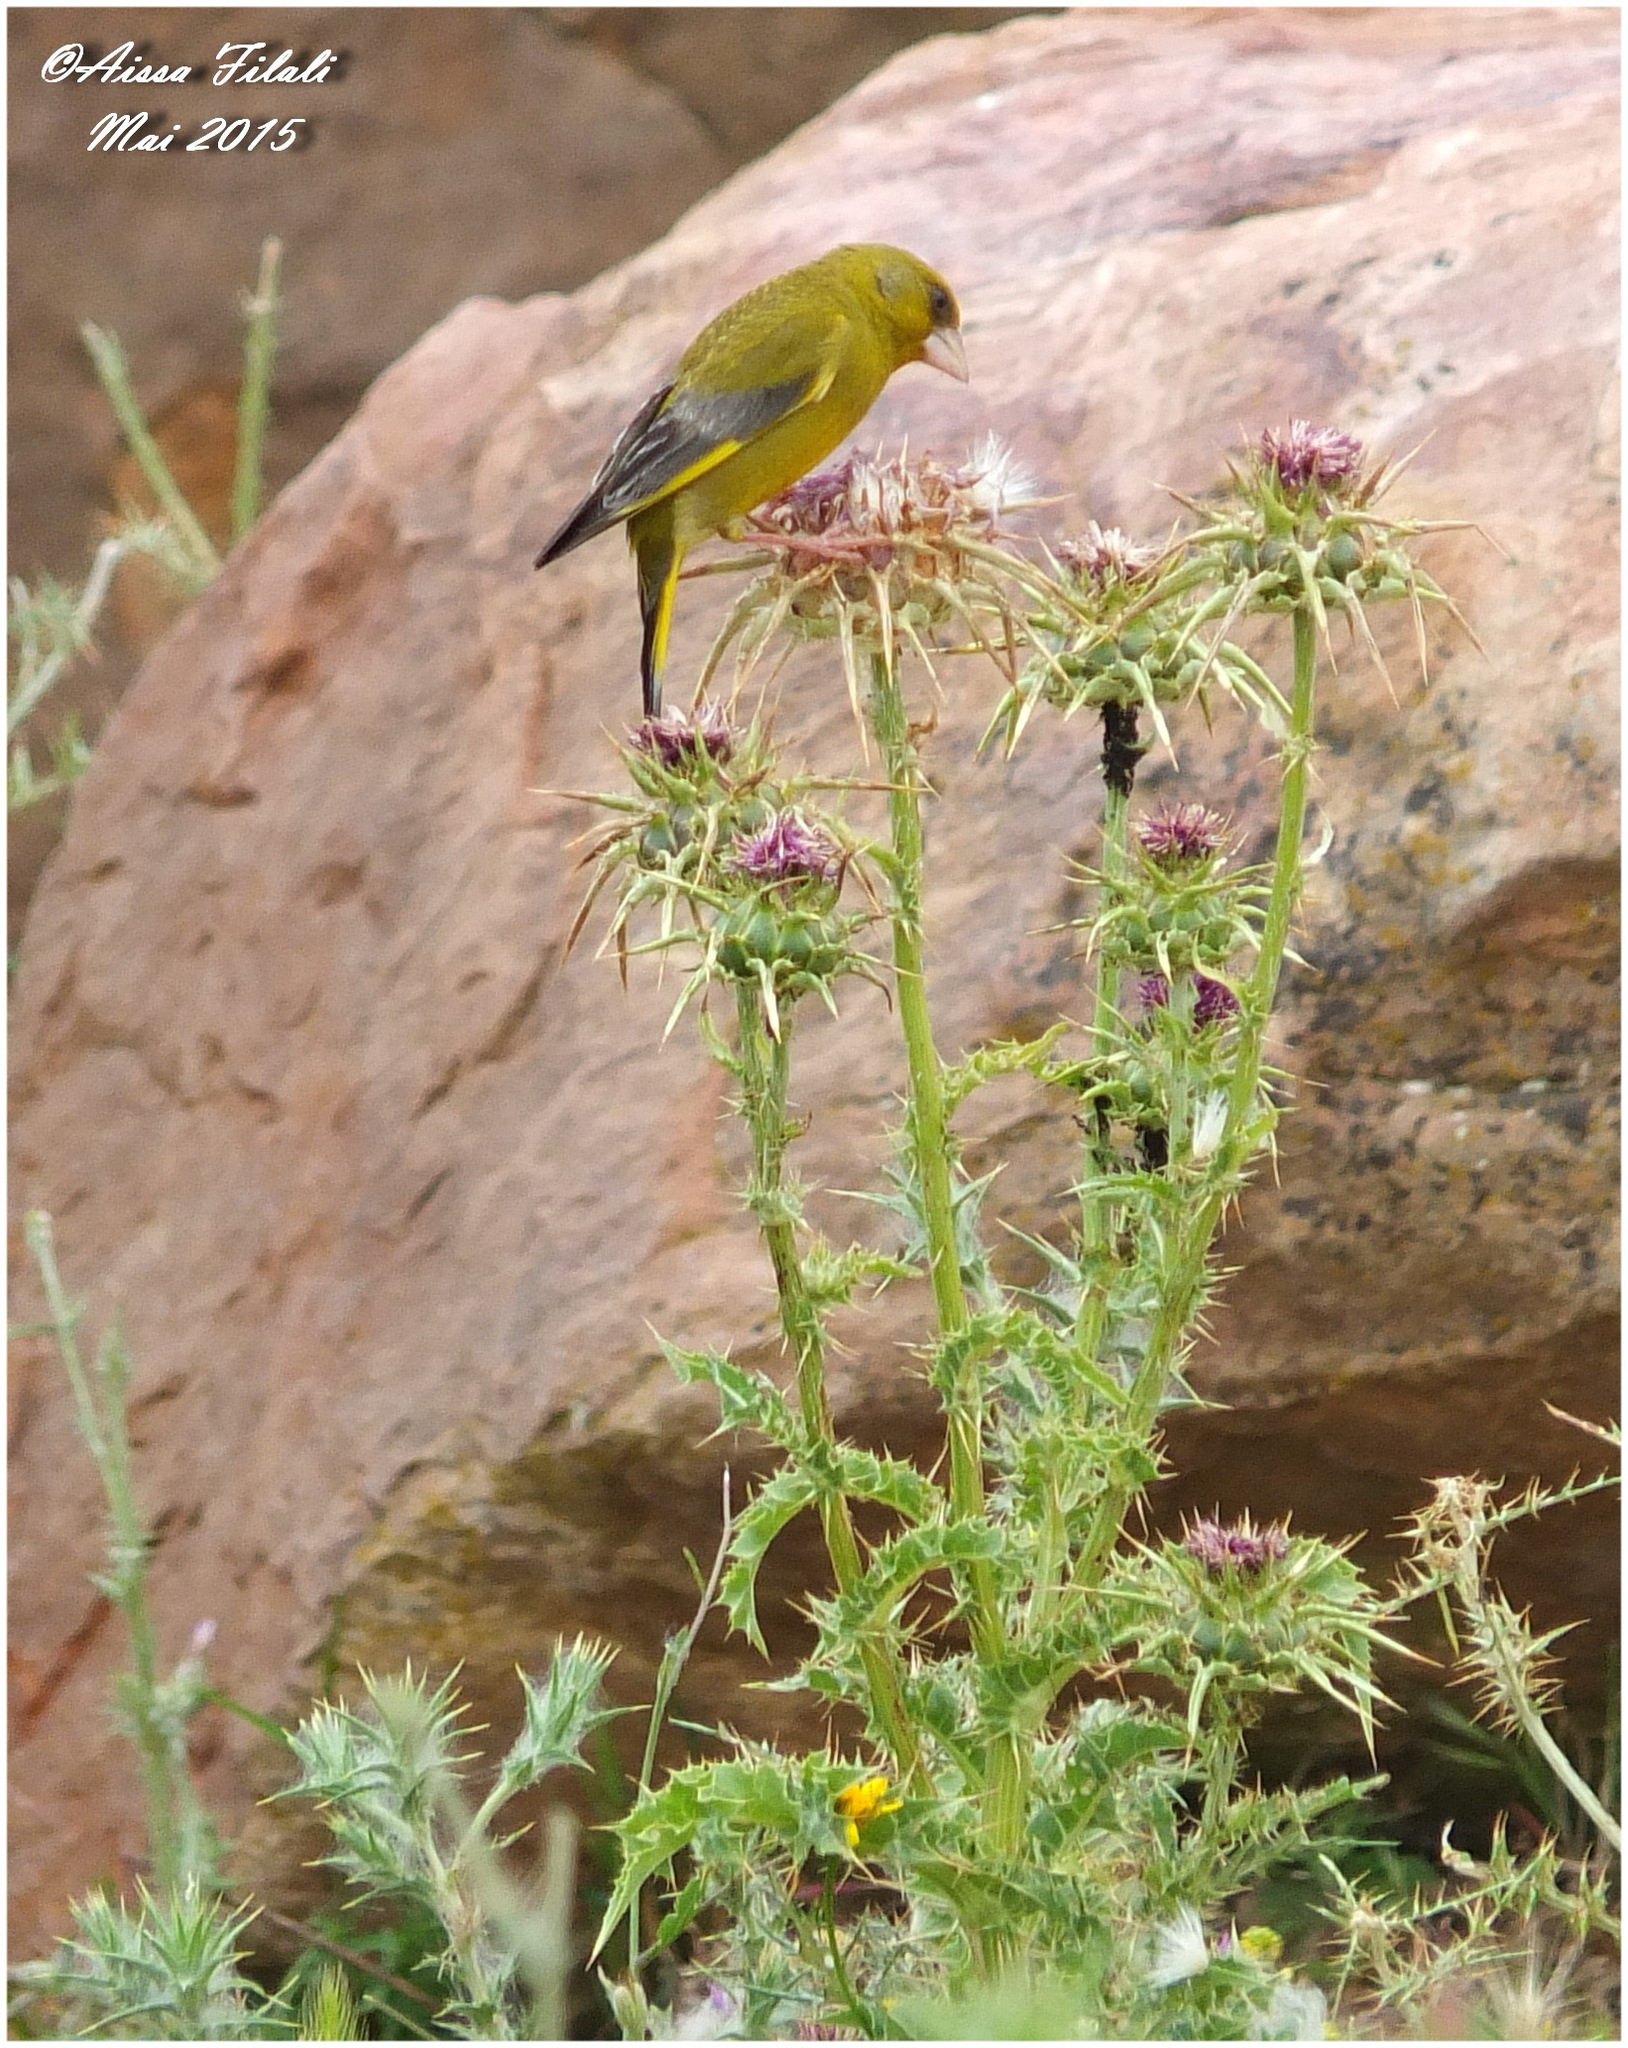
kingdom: Plantae
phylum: Tracheophyta
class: Liliopsida
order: Poales
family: Poaceae
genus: Chloris
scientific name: Chloris chloris
